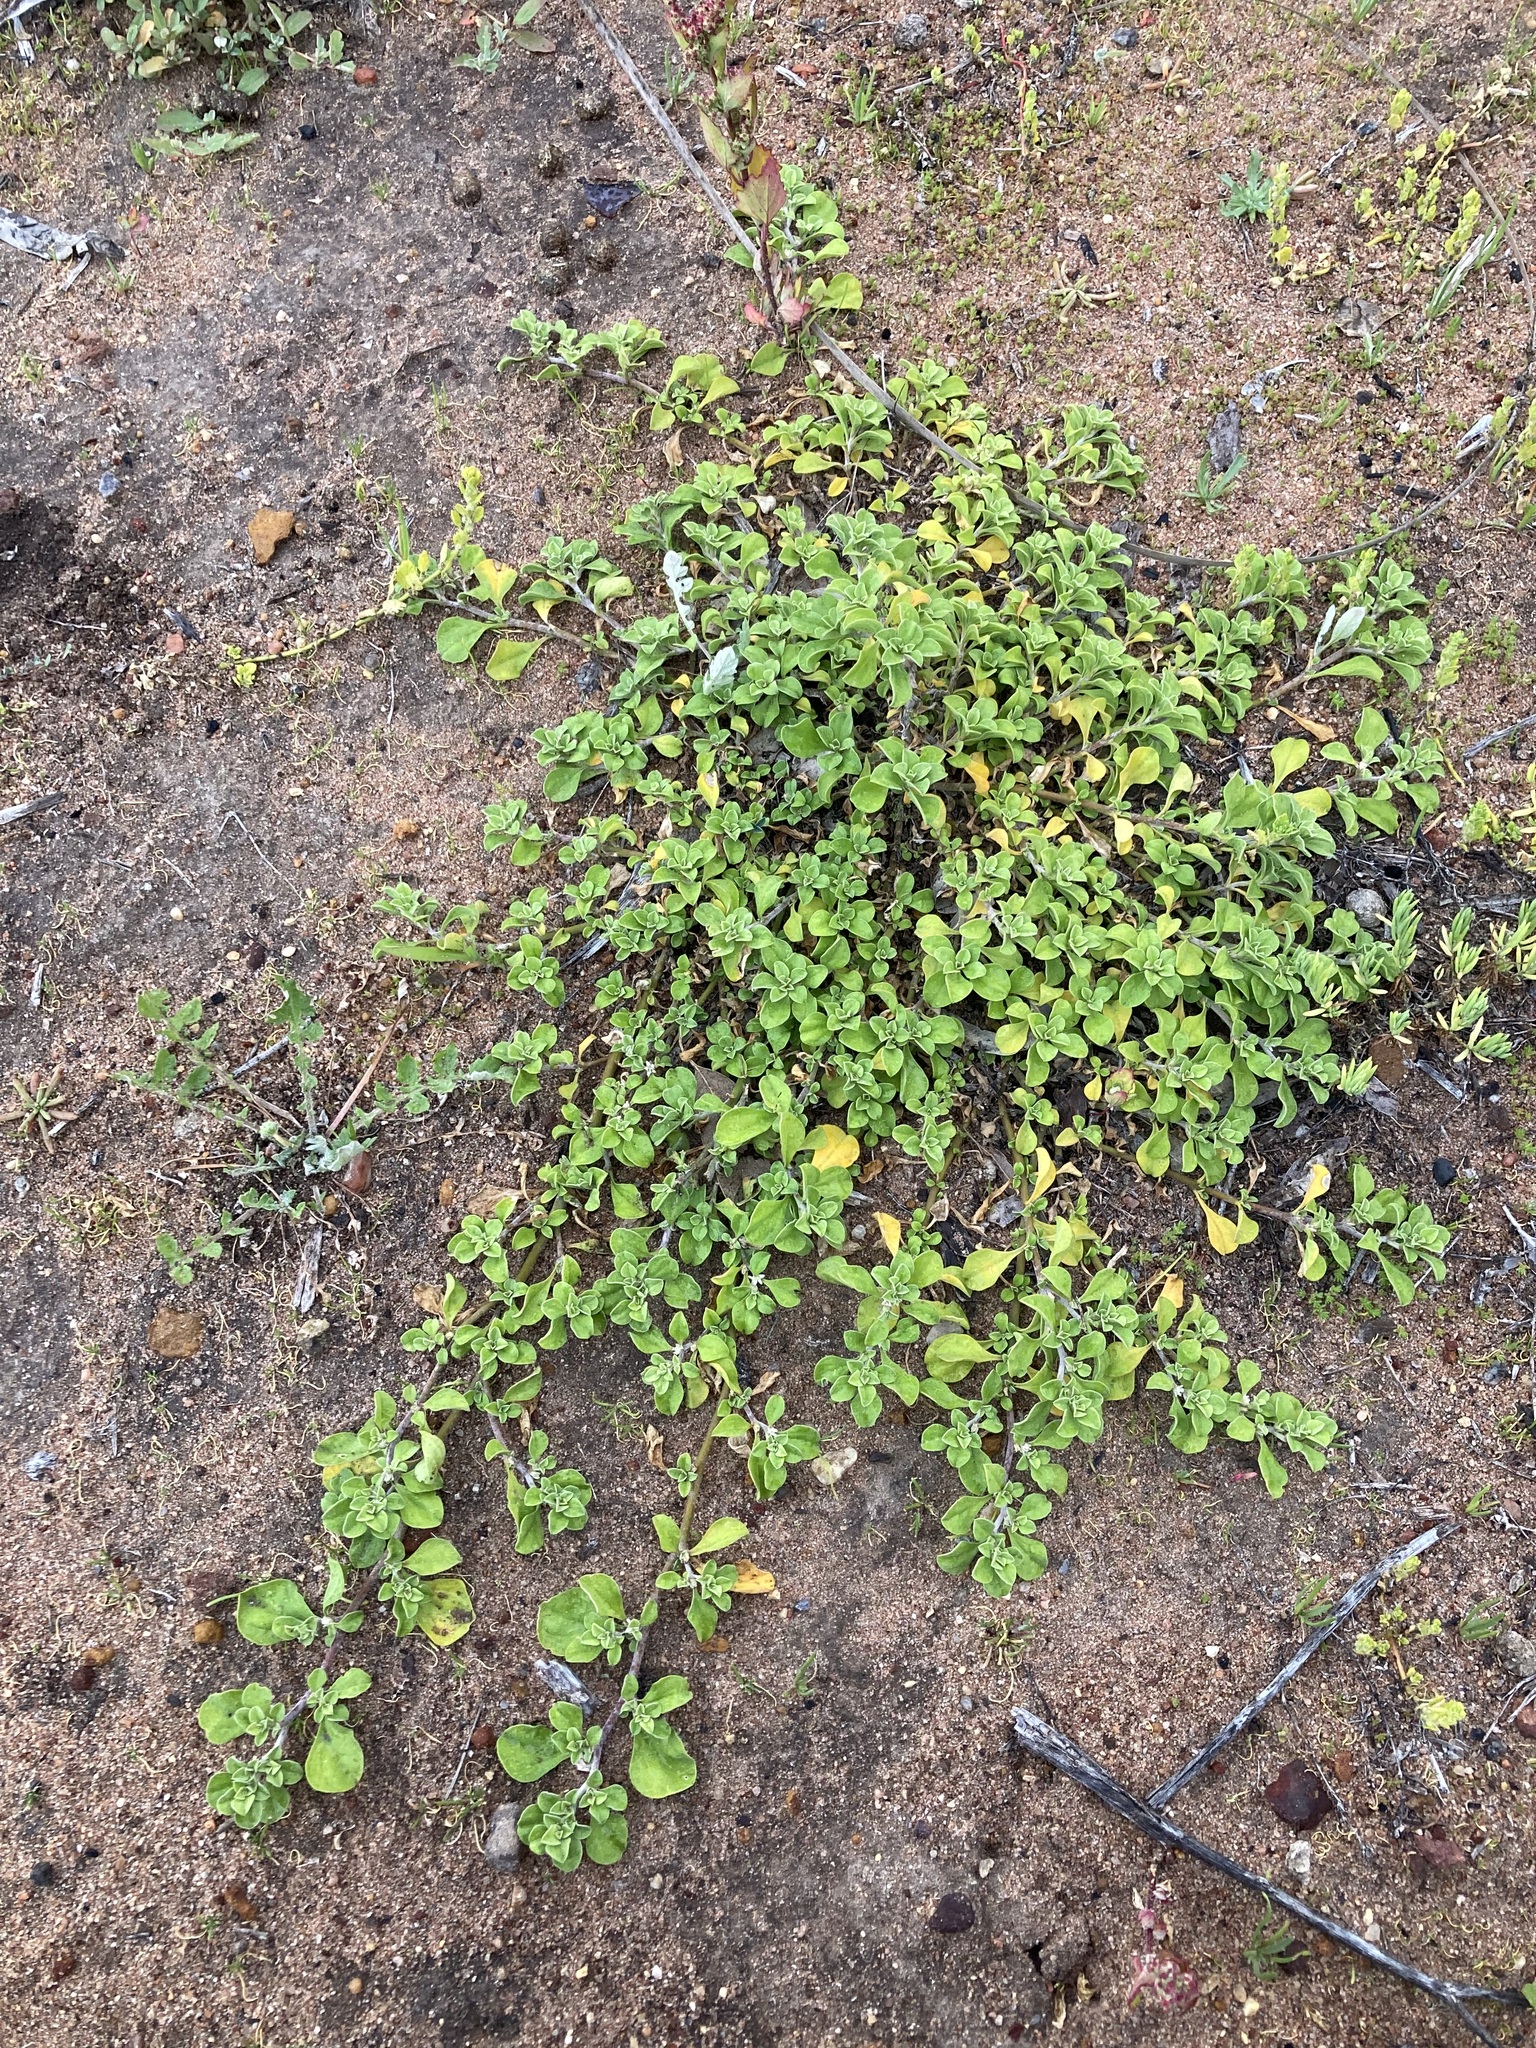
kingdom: Plantae
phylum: Tracheophyta
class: Magnoliopsida
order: Caryophyllales
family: Aizoaceae
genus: Aizoon
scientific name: Aizoon pubescens
